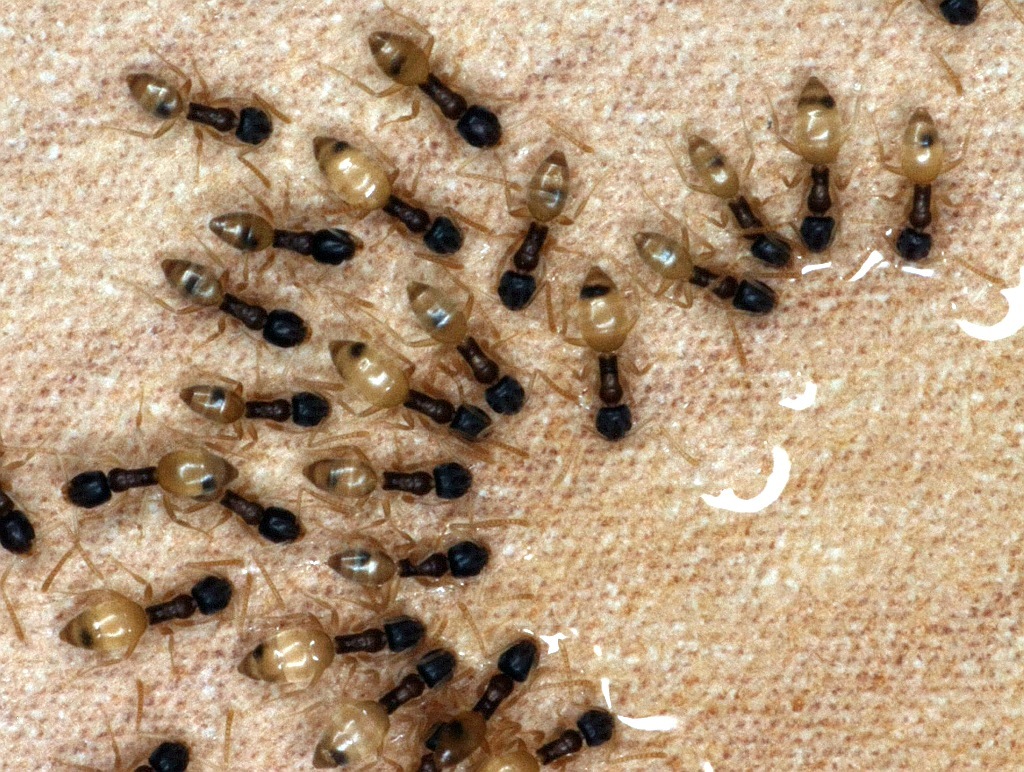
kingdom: Animalia
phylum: Arthropoda
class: Insecta
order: Hymenoptera
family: Formicidae
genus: Tapinoma
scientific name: Tapinoma melanocephalum
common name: Ghost ant
